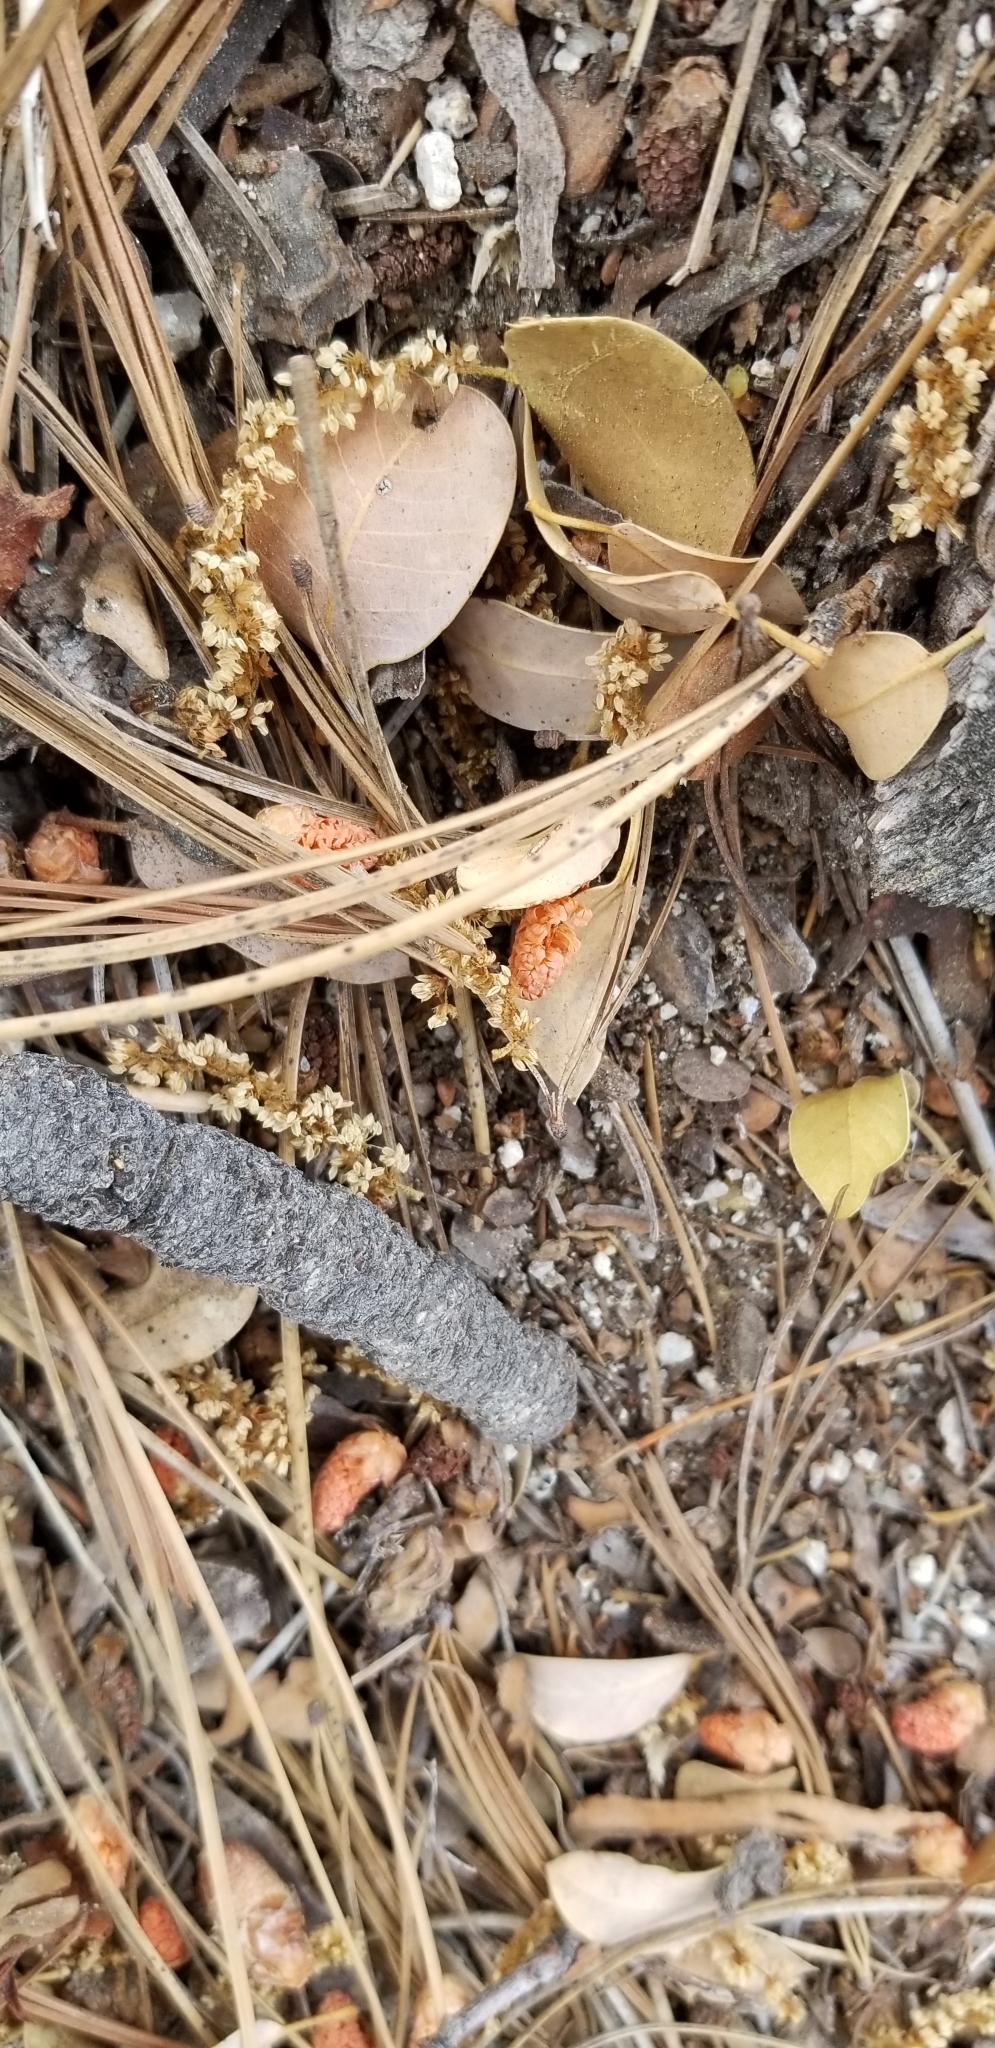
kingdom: Plantae
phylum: Tracheophyta
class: Pinopsida
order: Pinales
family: Pinaceae
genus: Pinus
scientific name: Pinus jeffreyi
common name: Jeffrey pine
